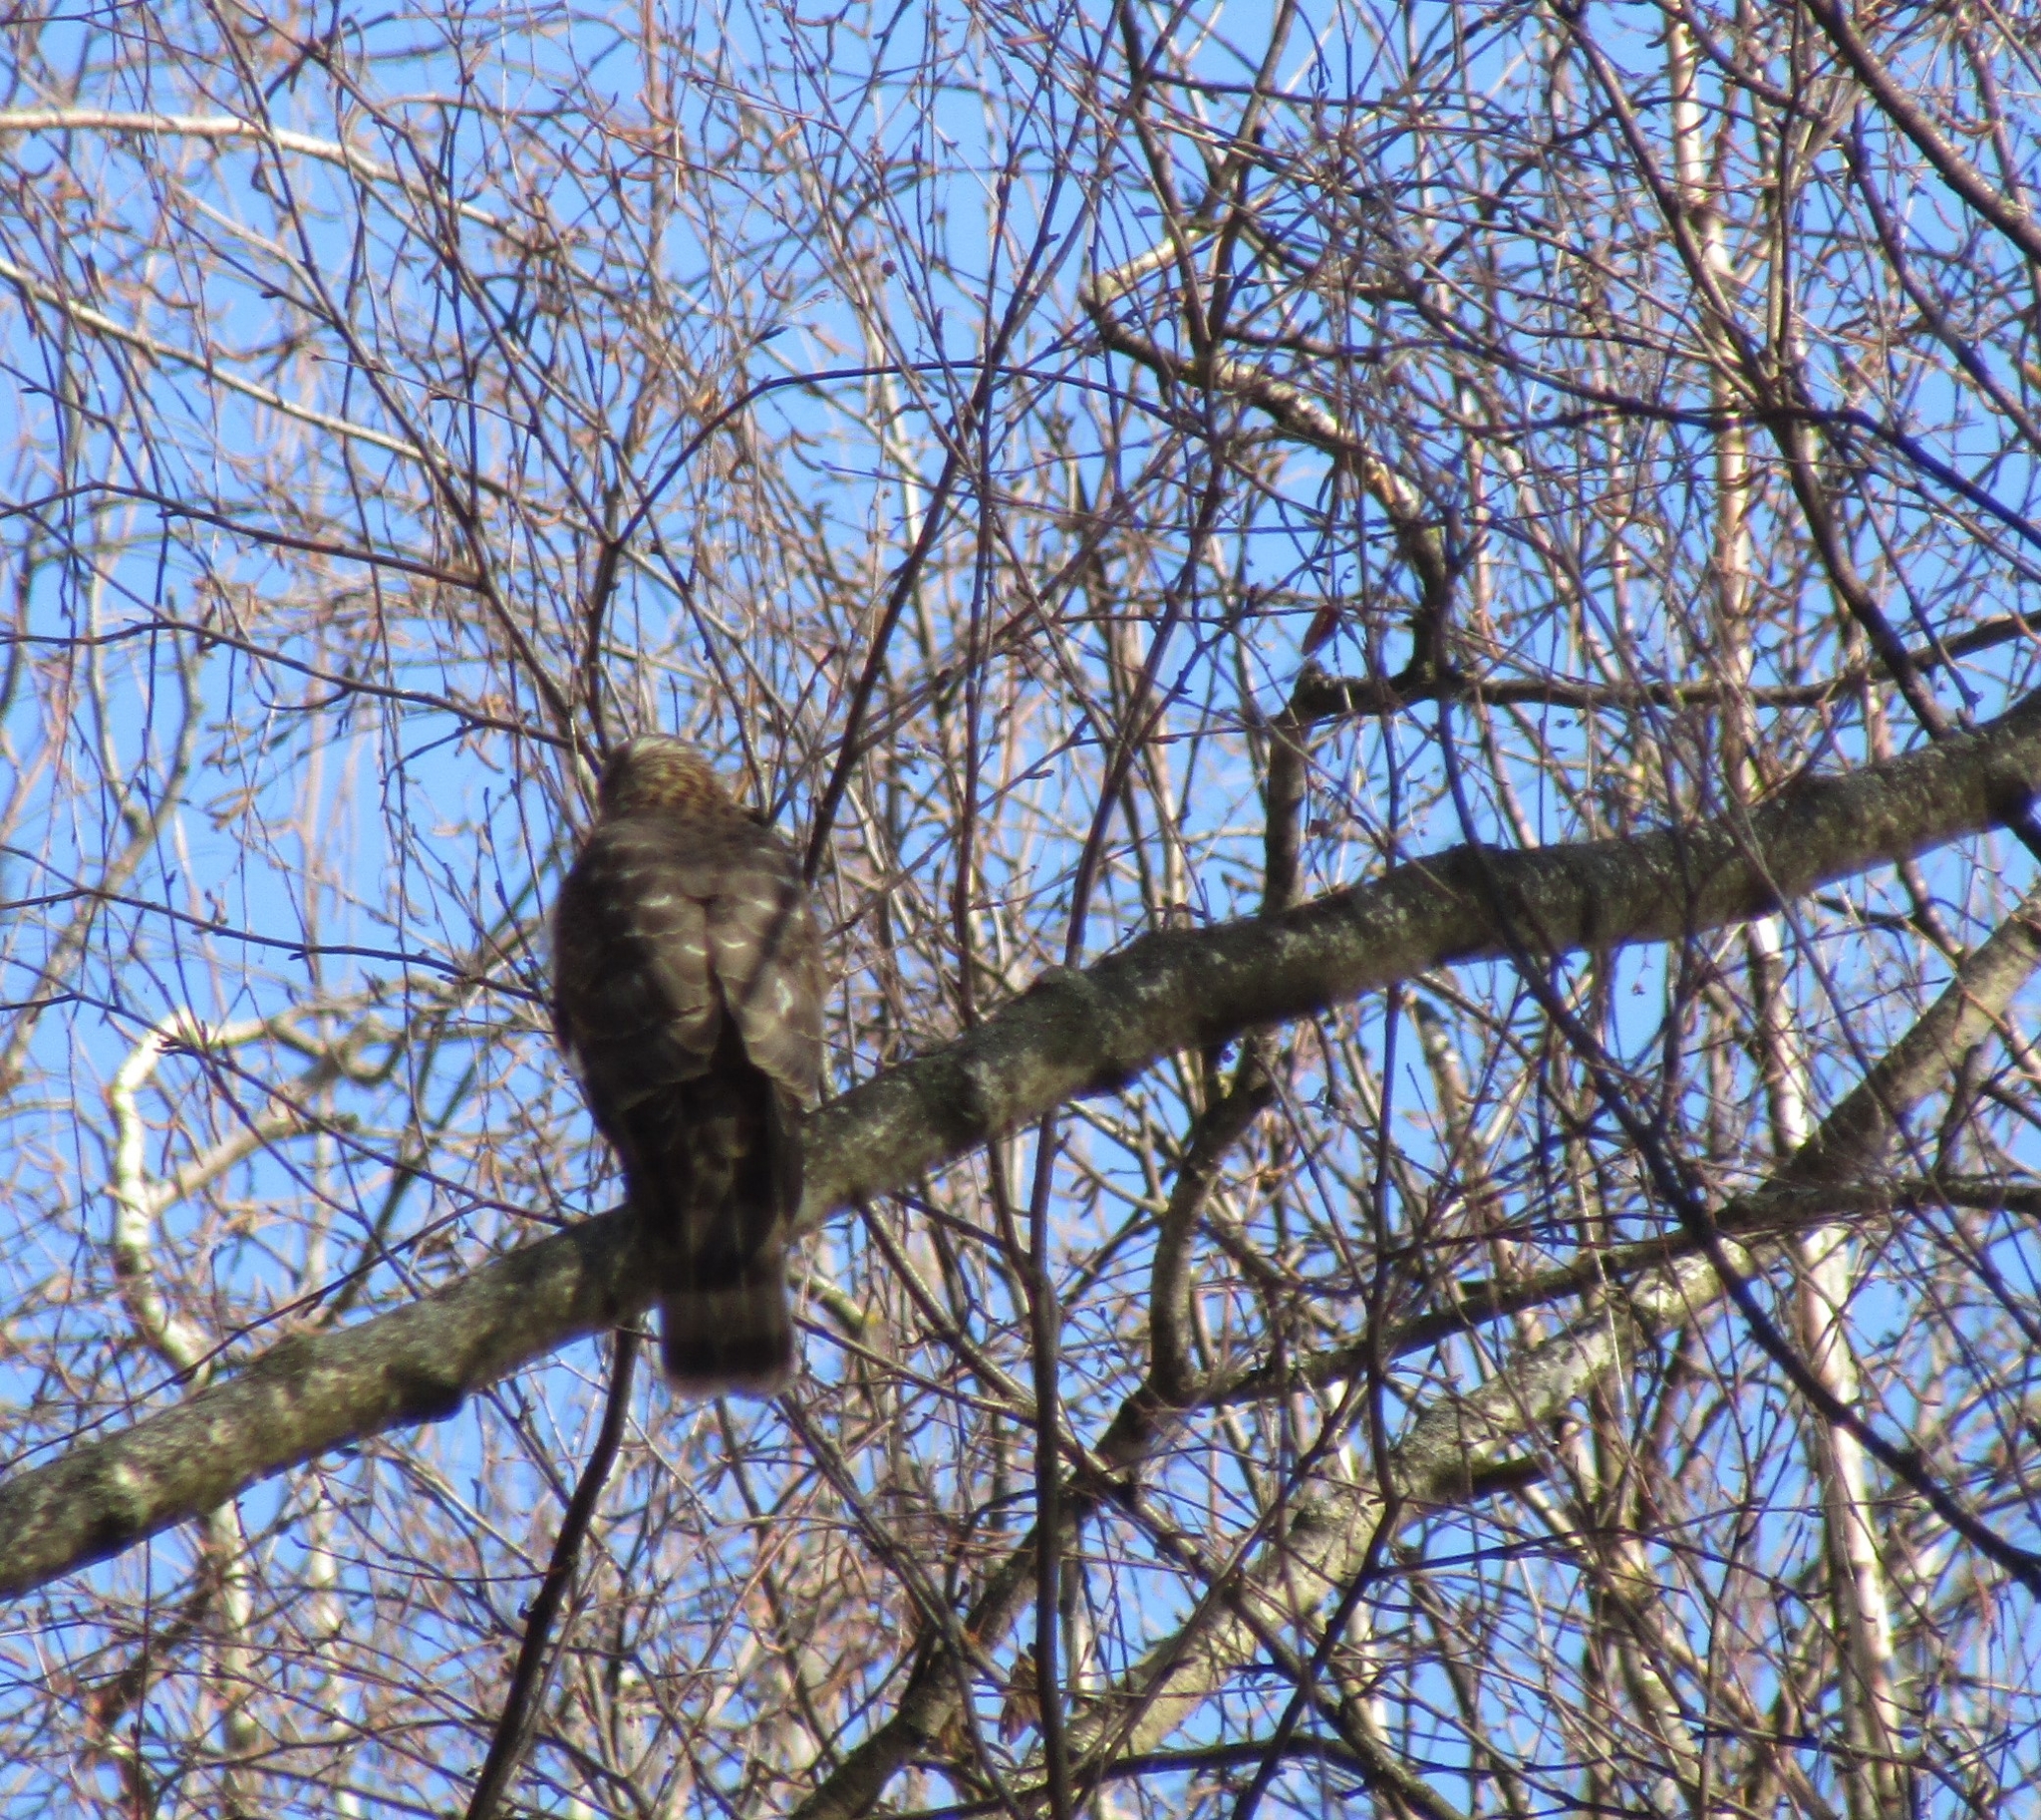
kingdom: Animalia
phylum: Chordata
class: Aves
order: Accipitriformes
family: Accipitridae
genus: Accipiter
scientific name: Accipiter nisus
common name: Eurasian sparrowhawk
